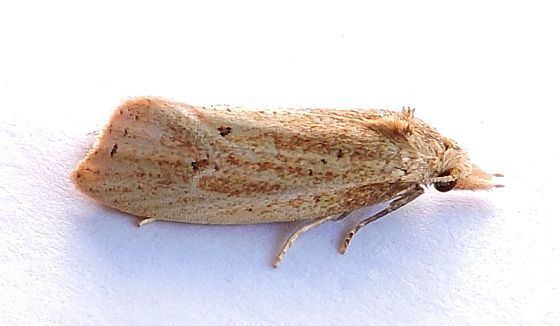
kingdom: Animalia
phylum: Arthropoda
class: Insecta
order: Lepidoptera
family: Tortricidae
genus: Aethes
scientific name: Aethes atomosana
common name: Two-spotted aethes
